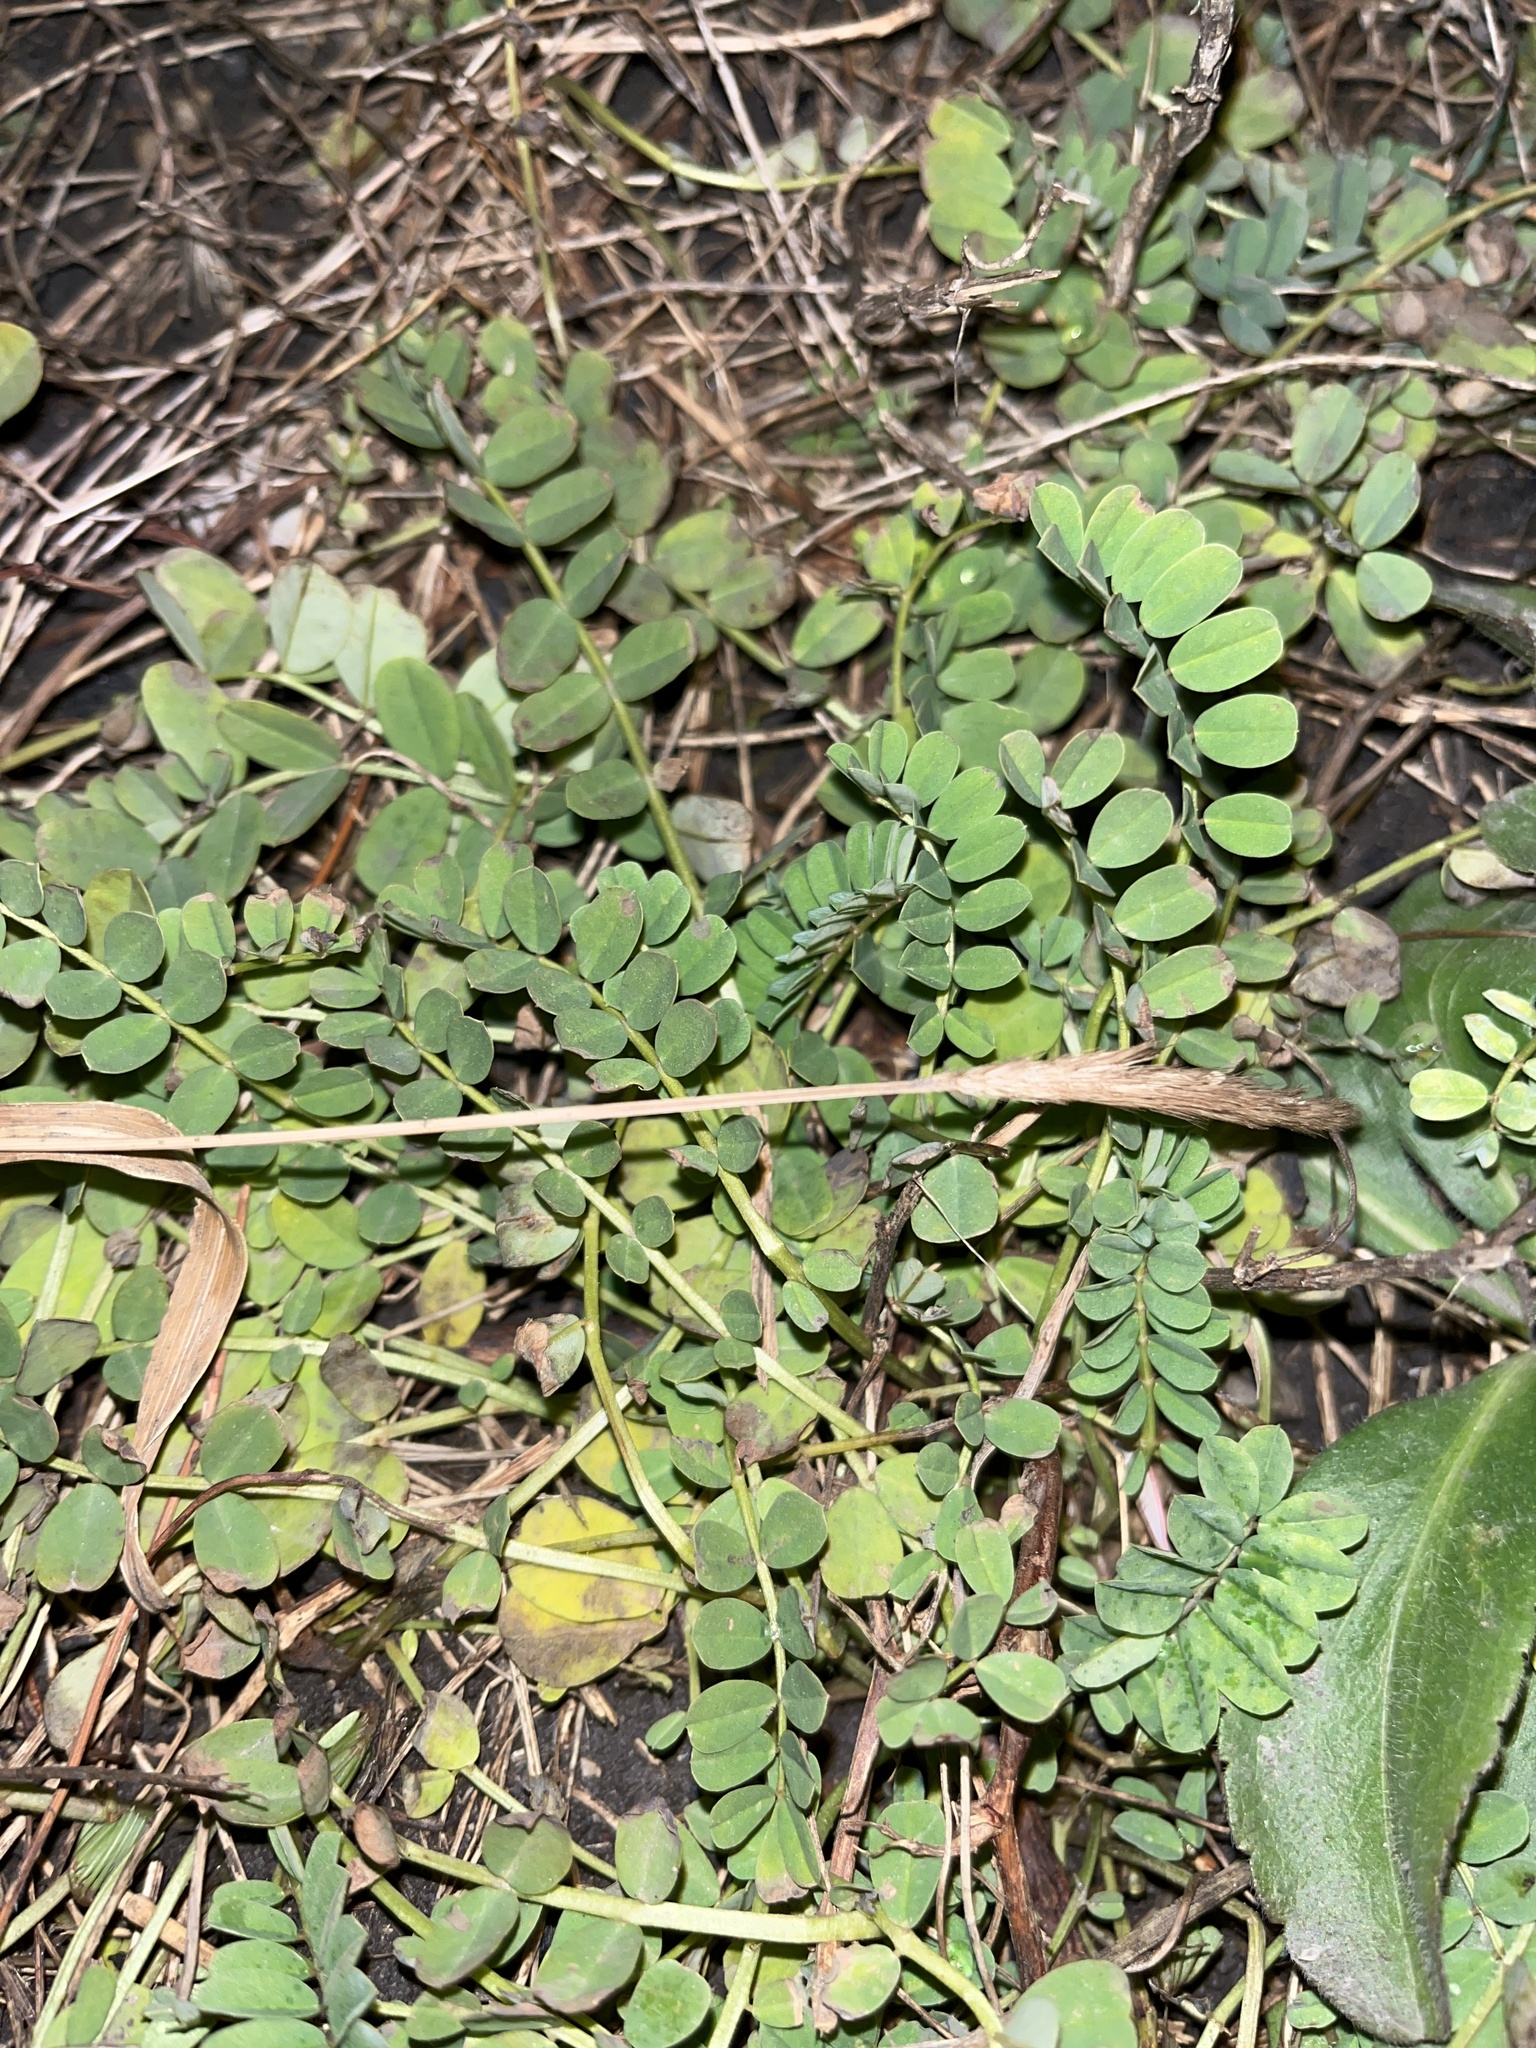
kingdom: Plantae
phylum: Tracheophyta
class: Magnoliopsida
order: Fabales
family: Fabaceae
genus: Coronilla
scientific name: Coronilla varia
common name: Crownvetch
